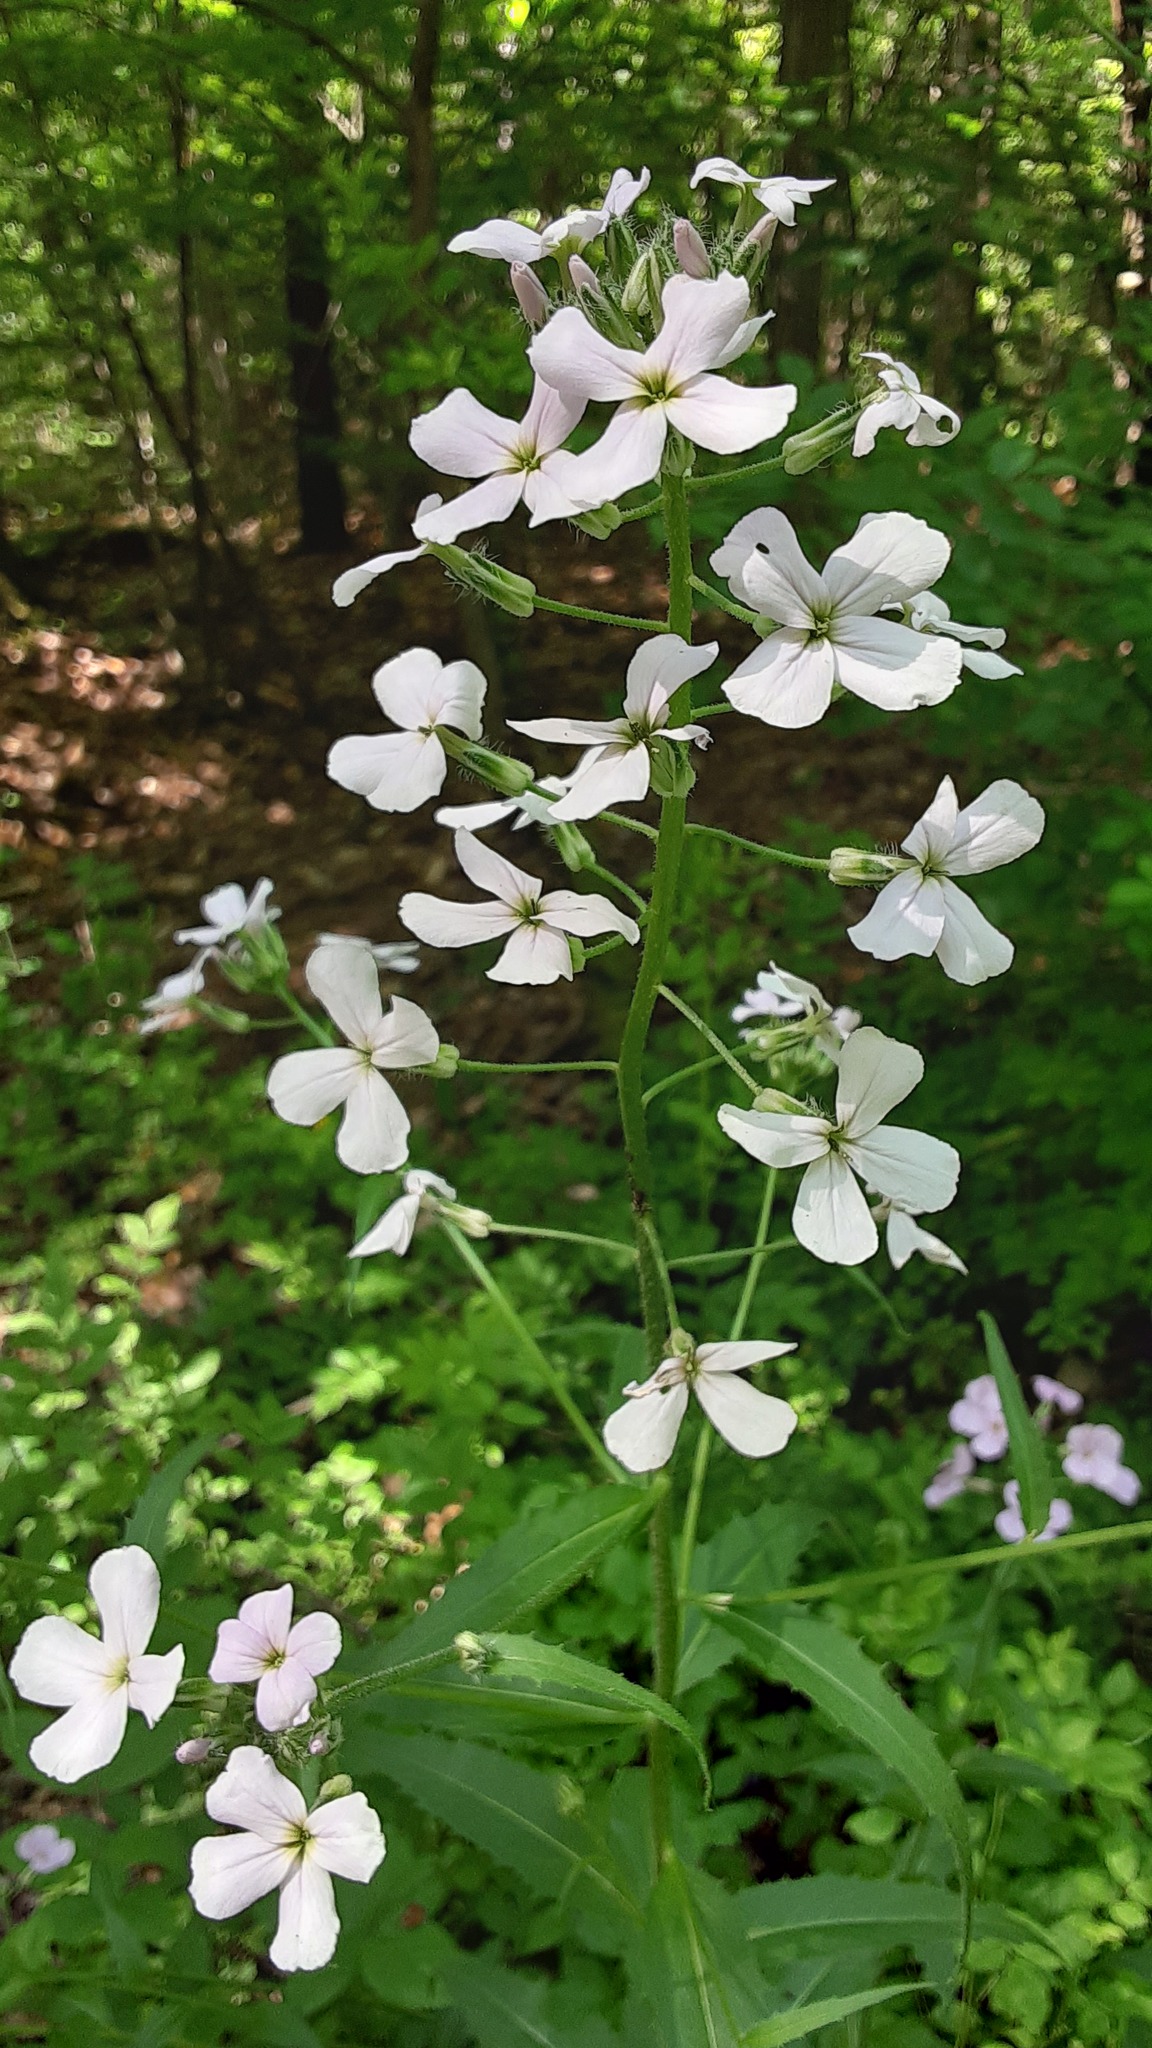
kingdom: Plantae
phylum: Tracheophyta
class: Magnoliopsida
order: Brassicales
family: Brassicaceae
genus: Hesperis
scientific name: Hesperis matronalis
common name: Dame's-violet
